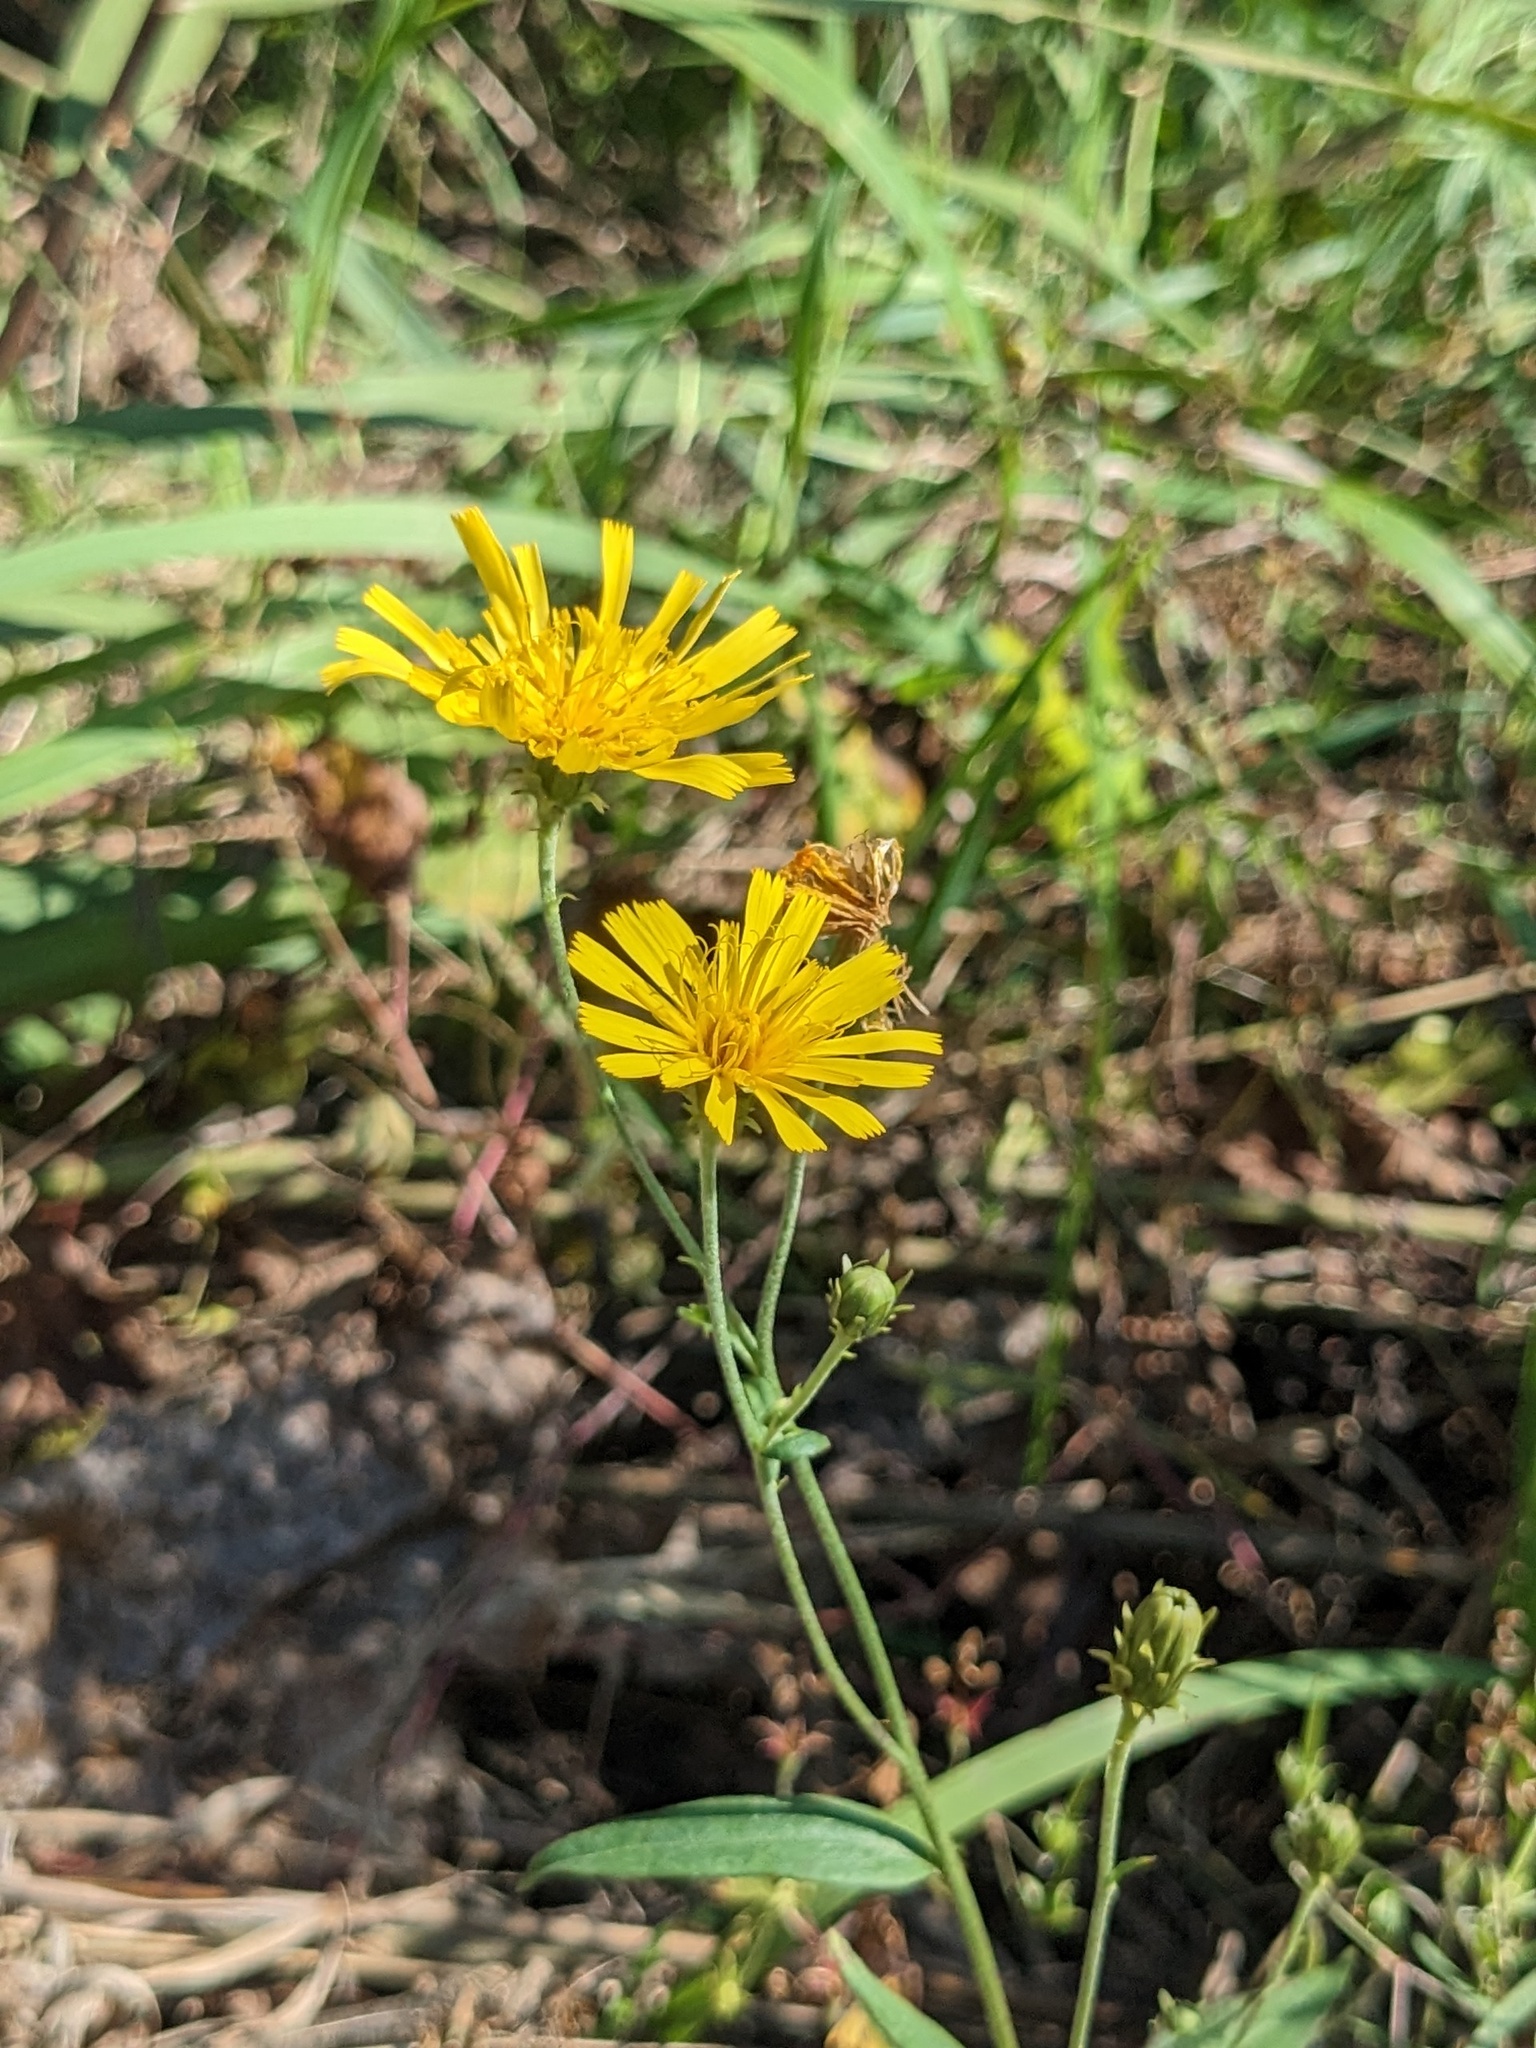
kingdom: Plantae
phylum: Tracheophyta
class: Magnoliopsida
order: Asterales
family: Asteraceae
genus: Hieracium
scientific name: Hieracium umbellatum
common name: Northern hawkweed
